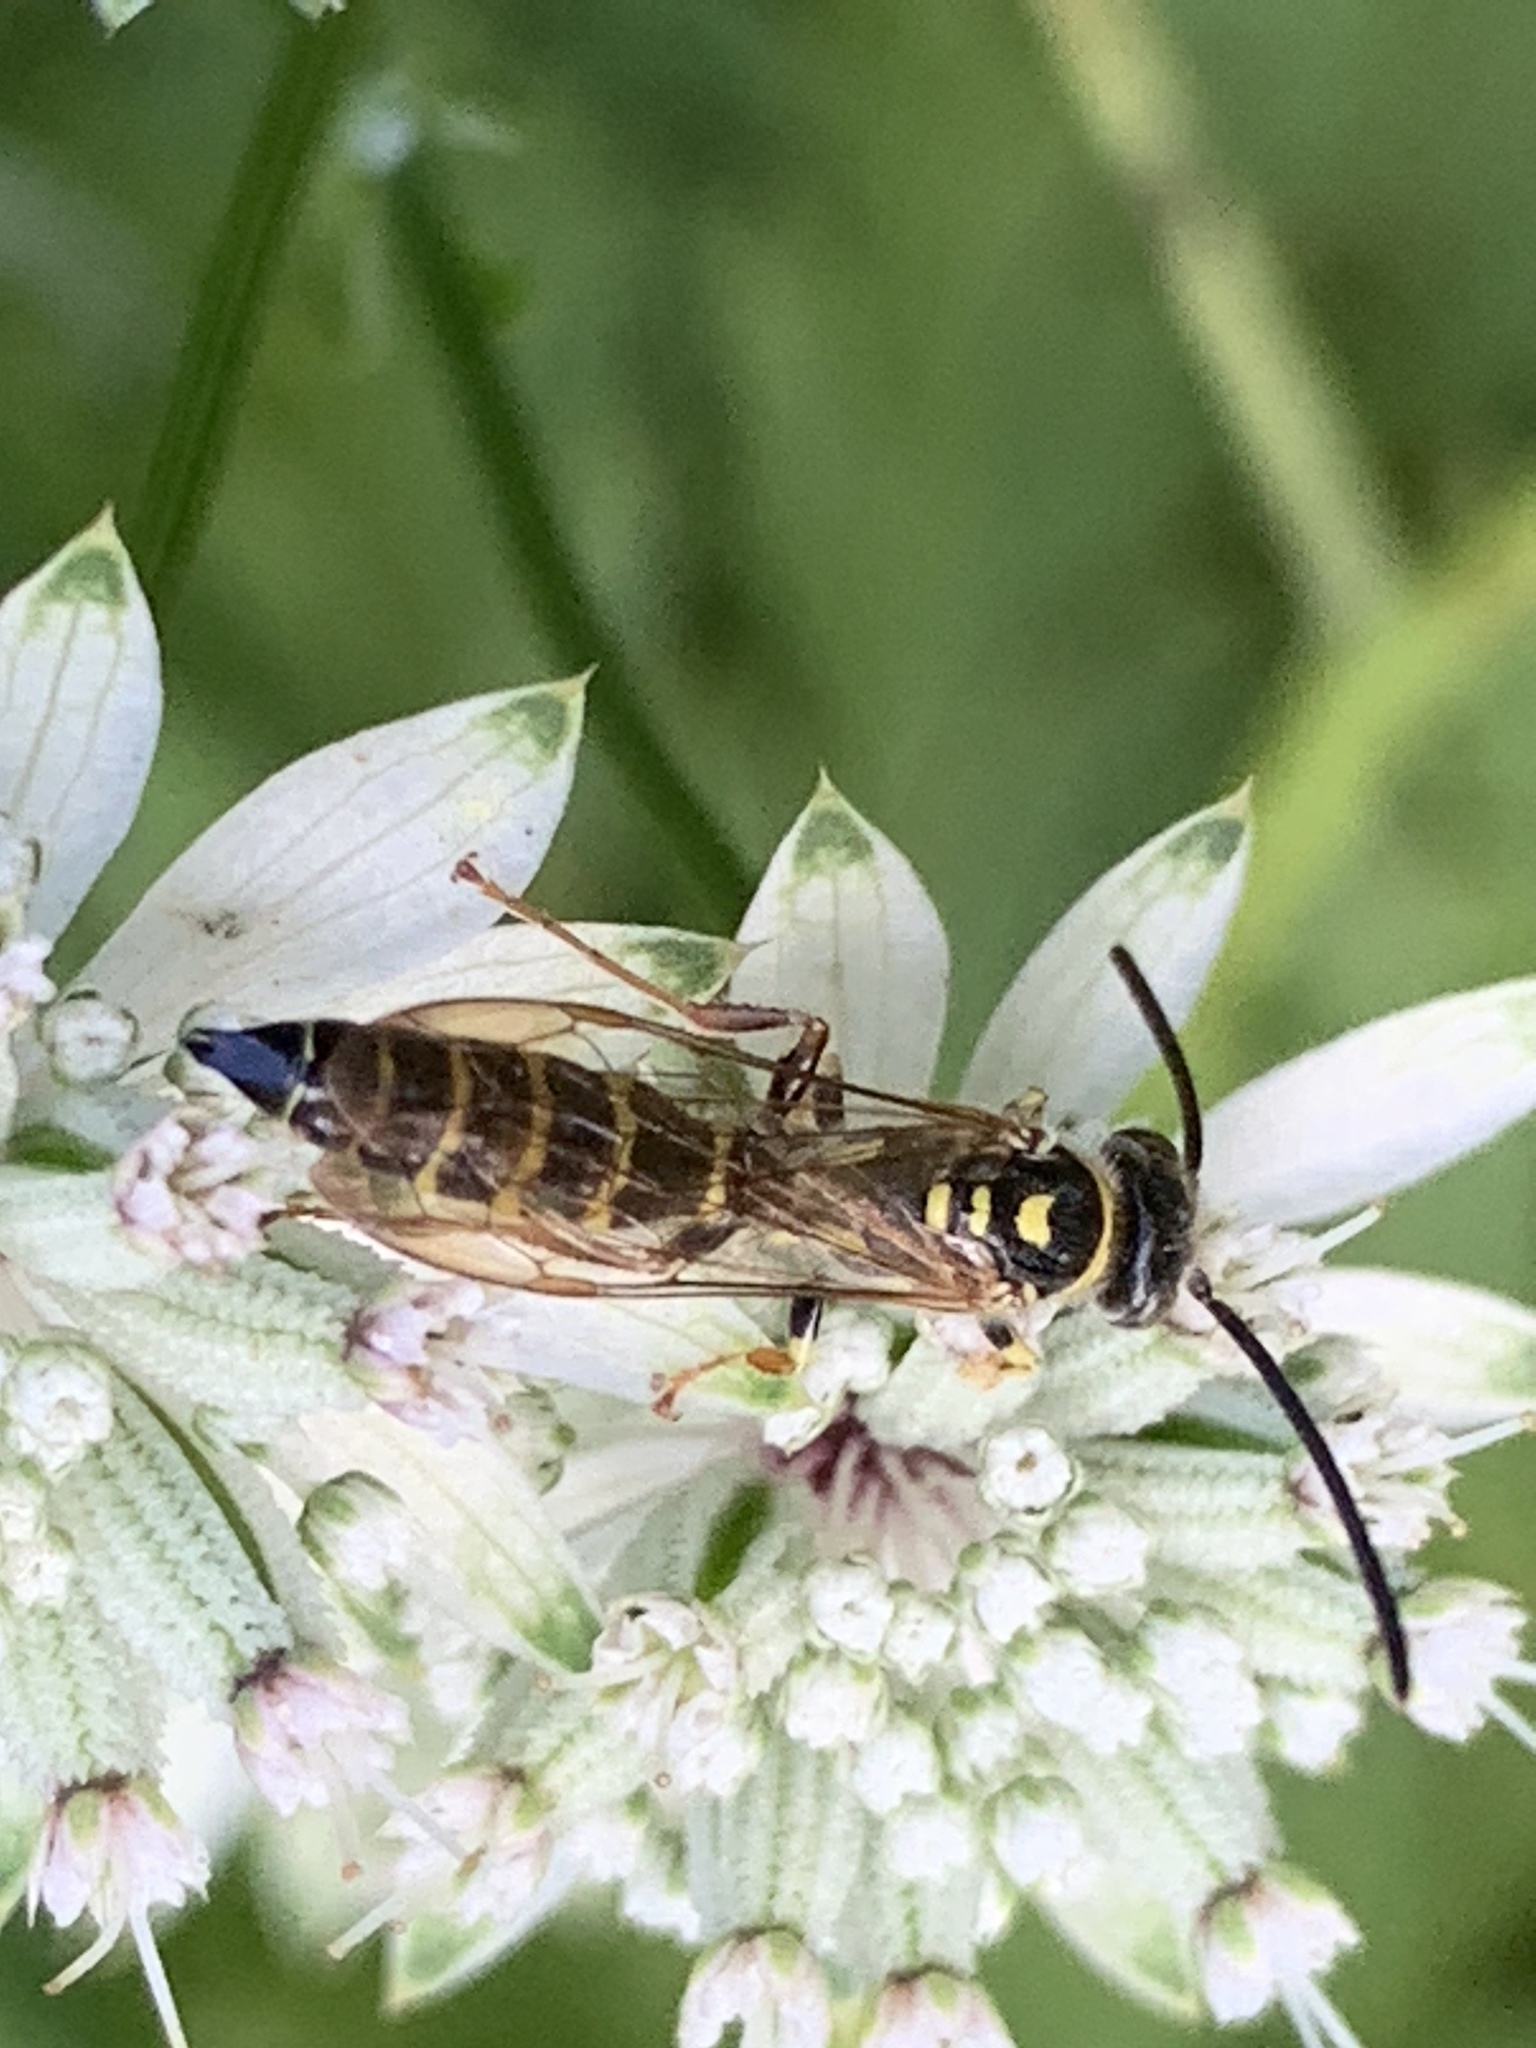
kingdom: Animalia
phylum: Arthropoda
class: Insecta
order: Hymenoptera
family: Tiphiidae
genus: Myzinum
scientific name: Myzinum
